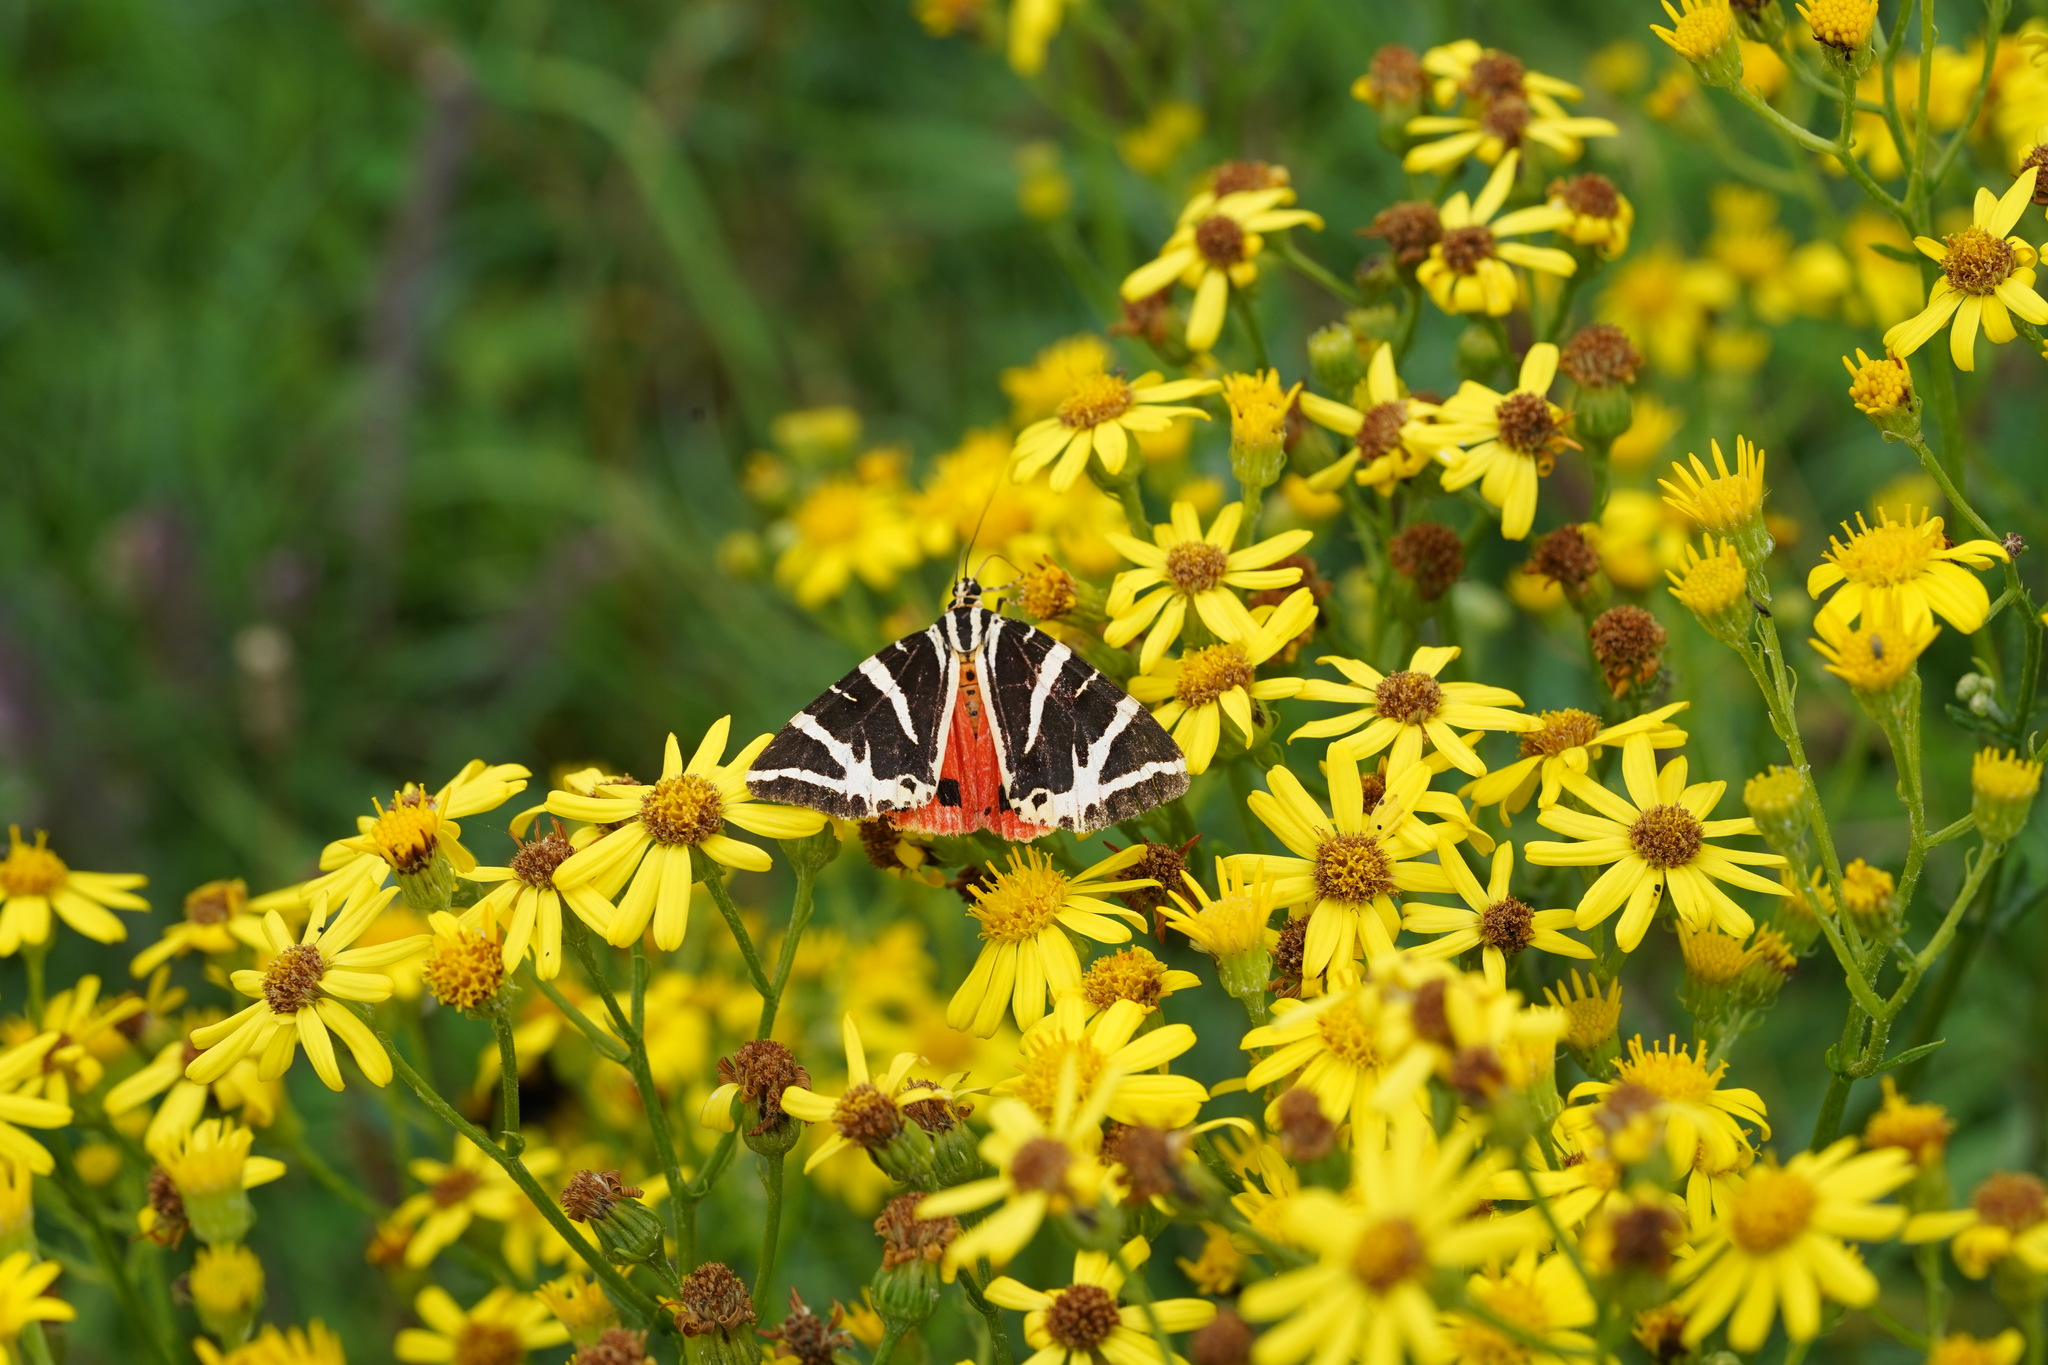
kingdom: Animalia
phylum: Arthropoda
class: Insecta
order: Lepidoptera
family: Erebidae
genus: Euplagia
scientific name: Euplagia quadripunctaria
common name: Jersey tiger
